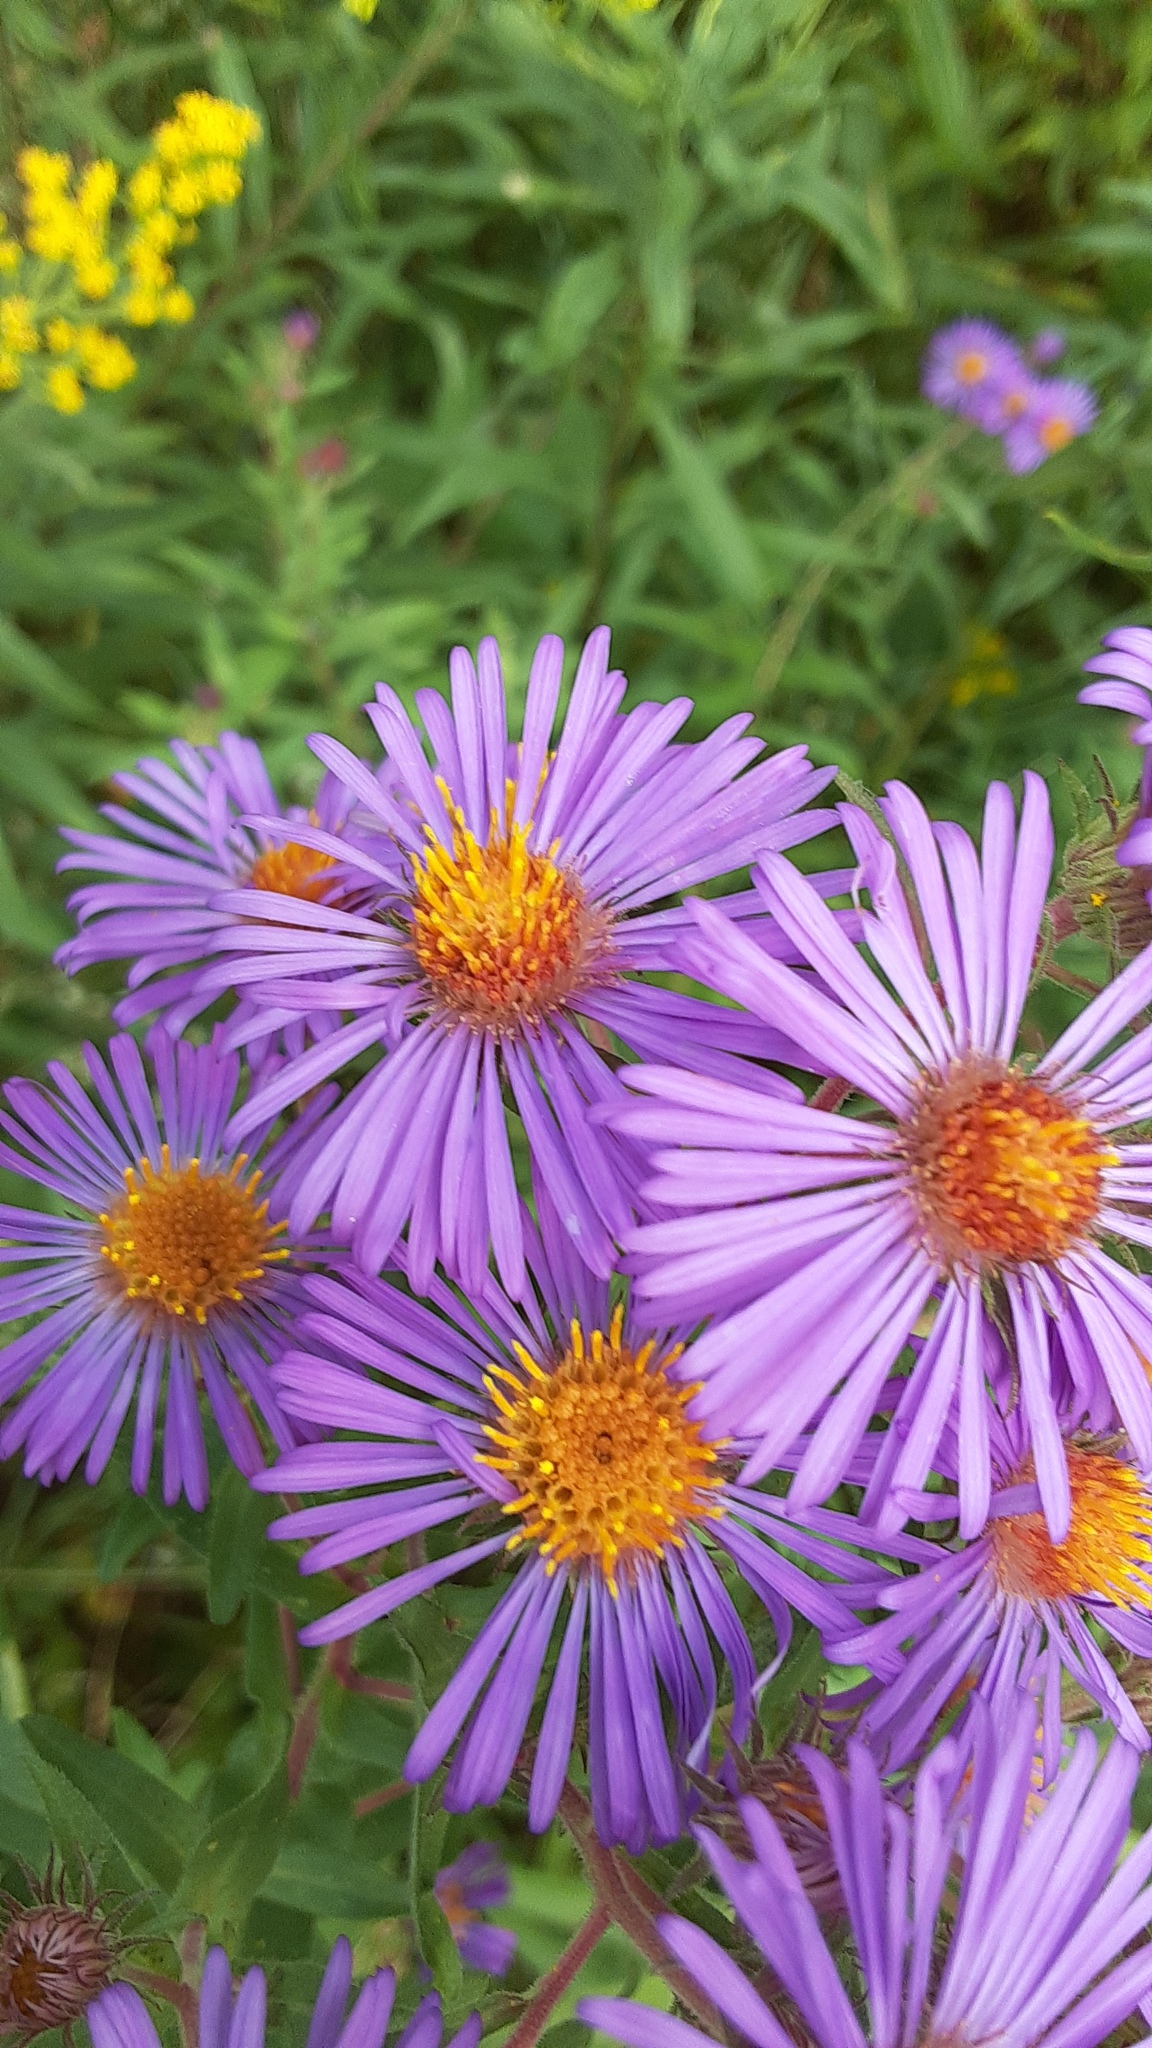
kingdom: Plantae
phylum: Tracheophyta
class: Magnoliopsida
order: Asterales
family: Asteraceae
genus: Symphyotrichum
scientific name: Symphyotrichum novae-angliae
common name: Michaelmas daisy
